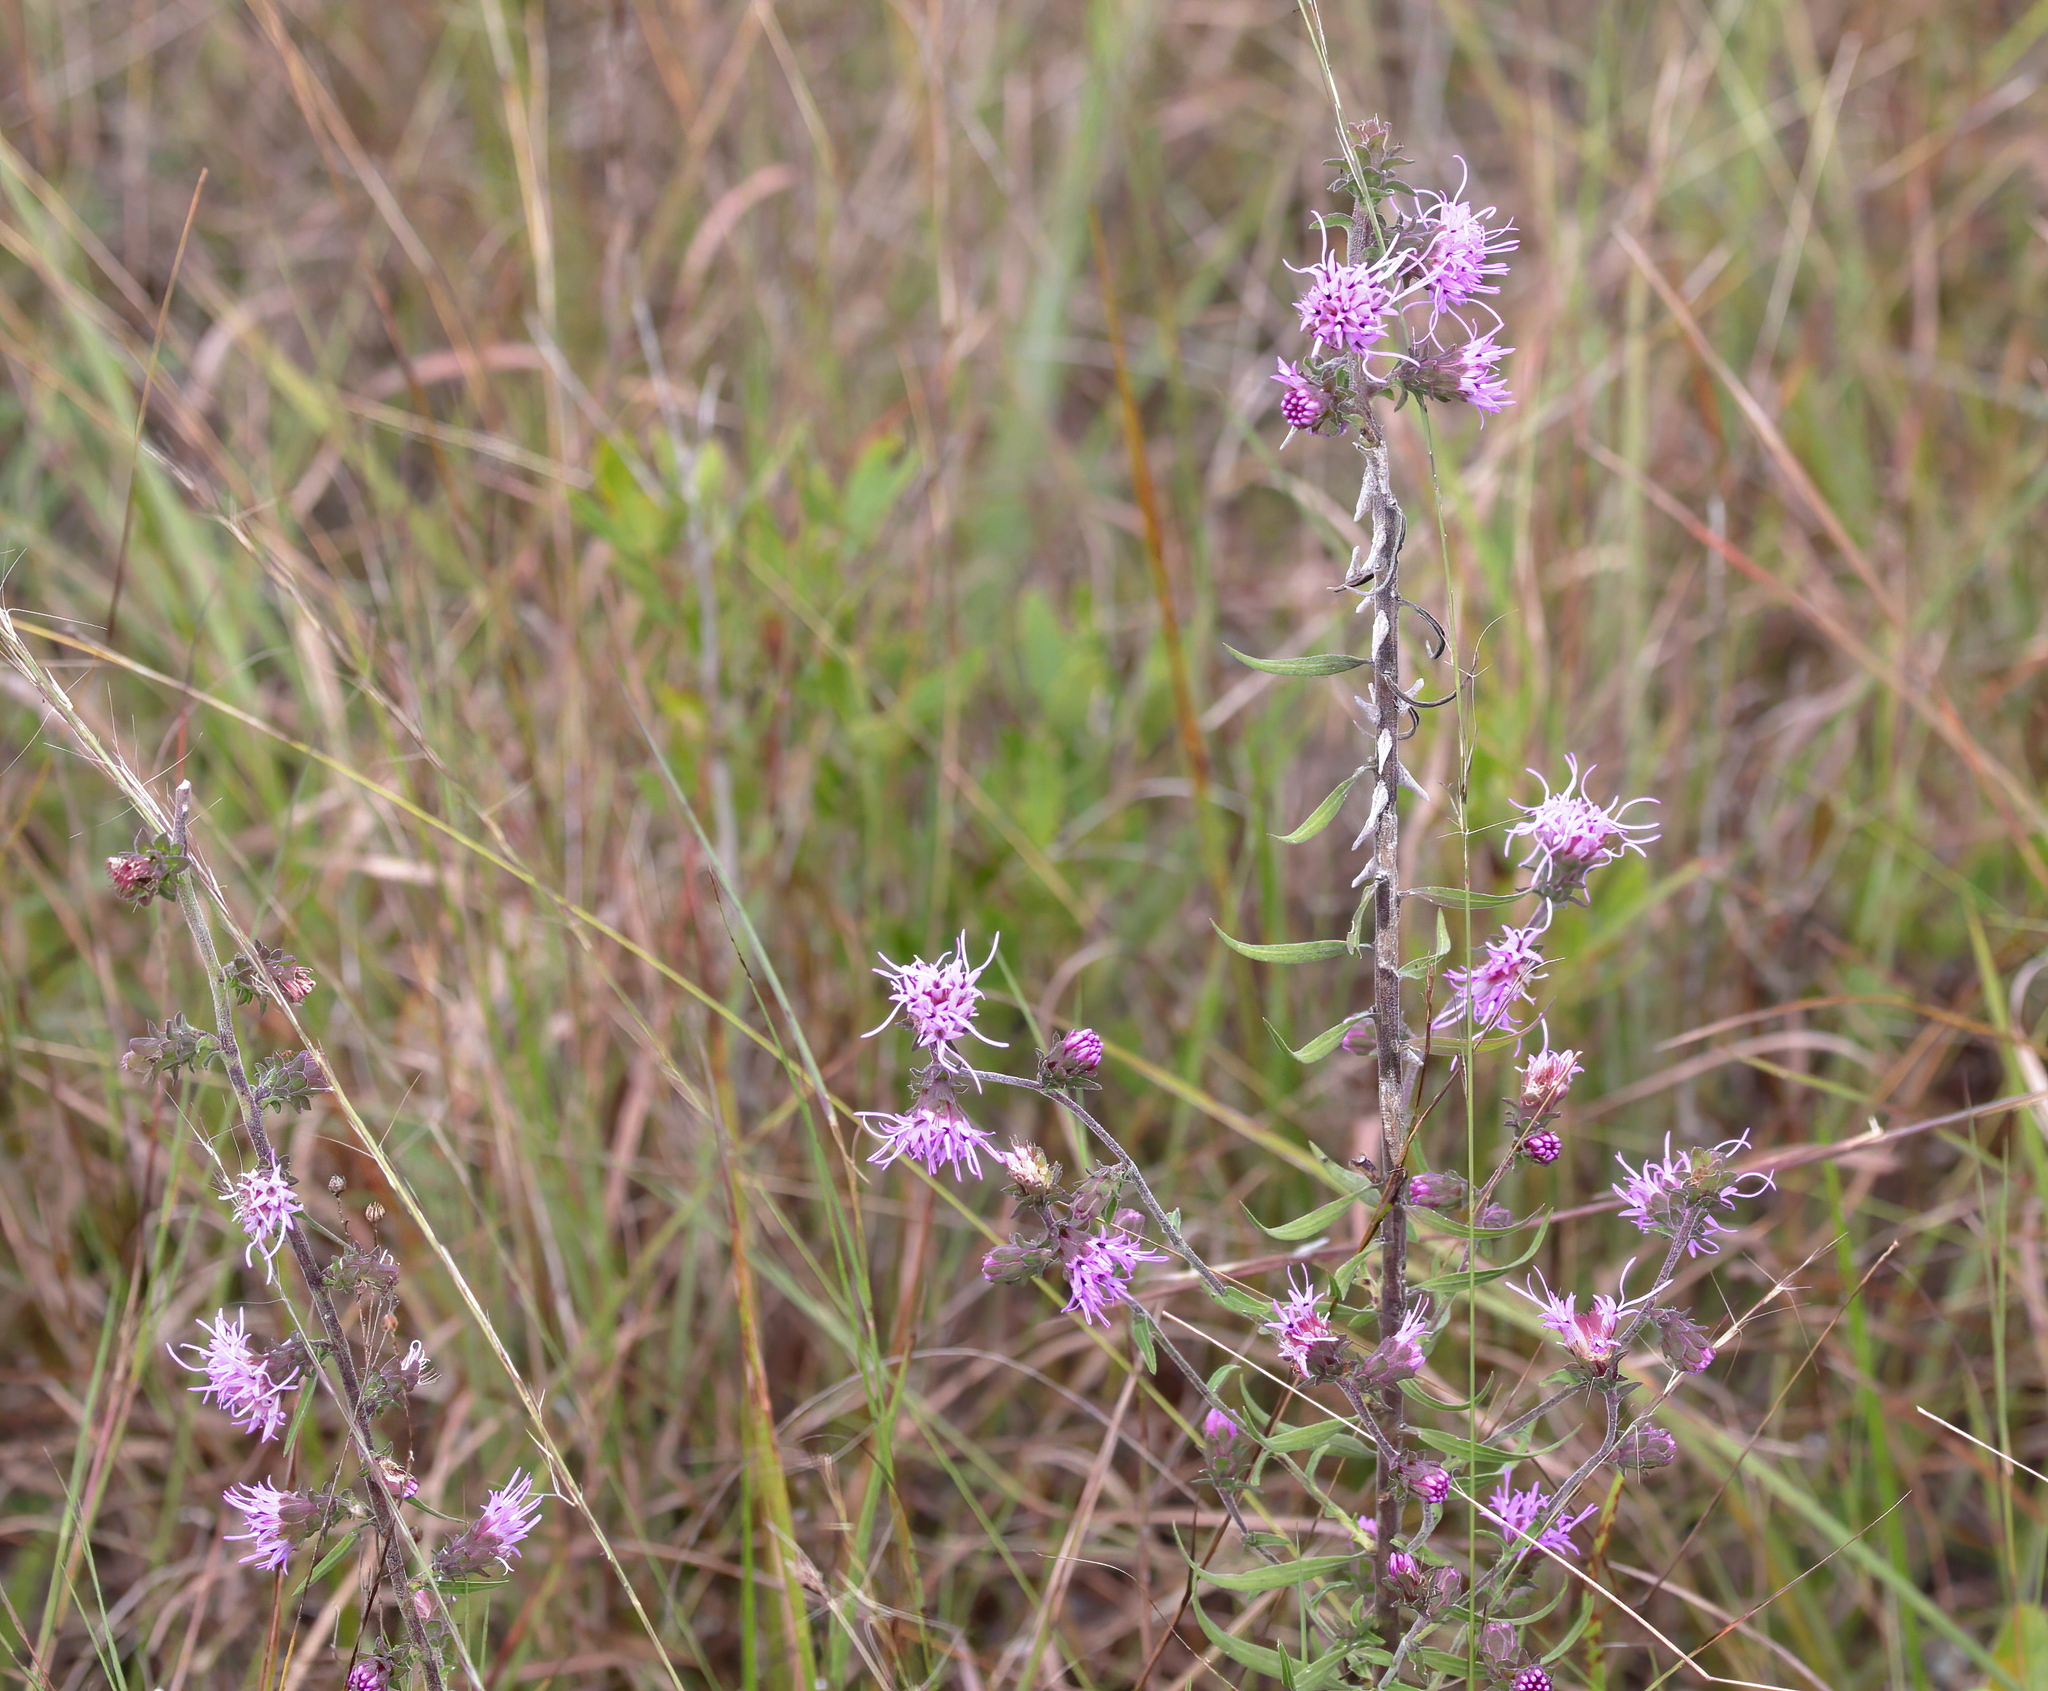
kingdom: Plantae
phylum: Tracheophyta
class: Magnoliopsida
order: Asterales
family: Asteraceae
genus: Liatris
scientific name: Liatris squarrulosa
